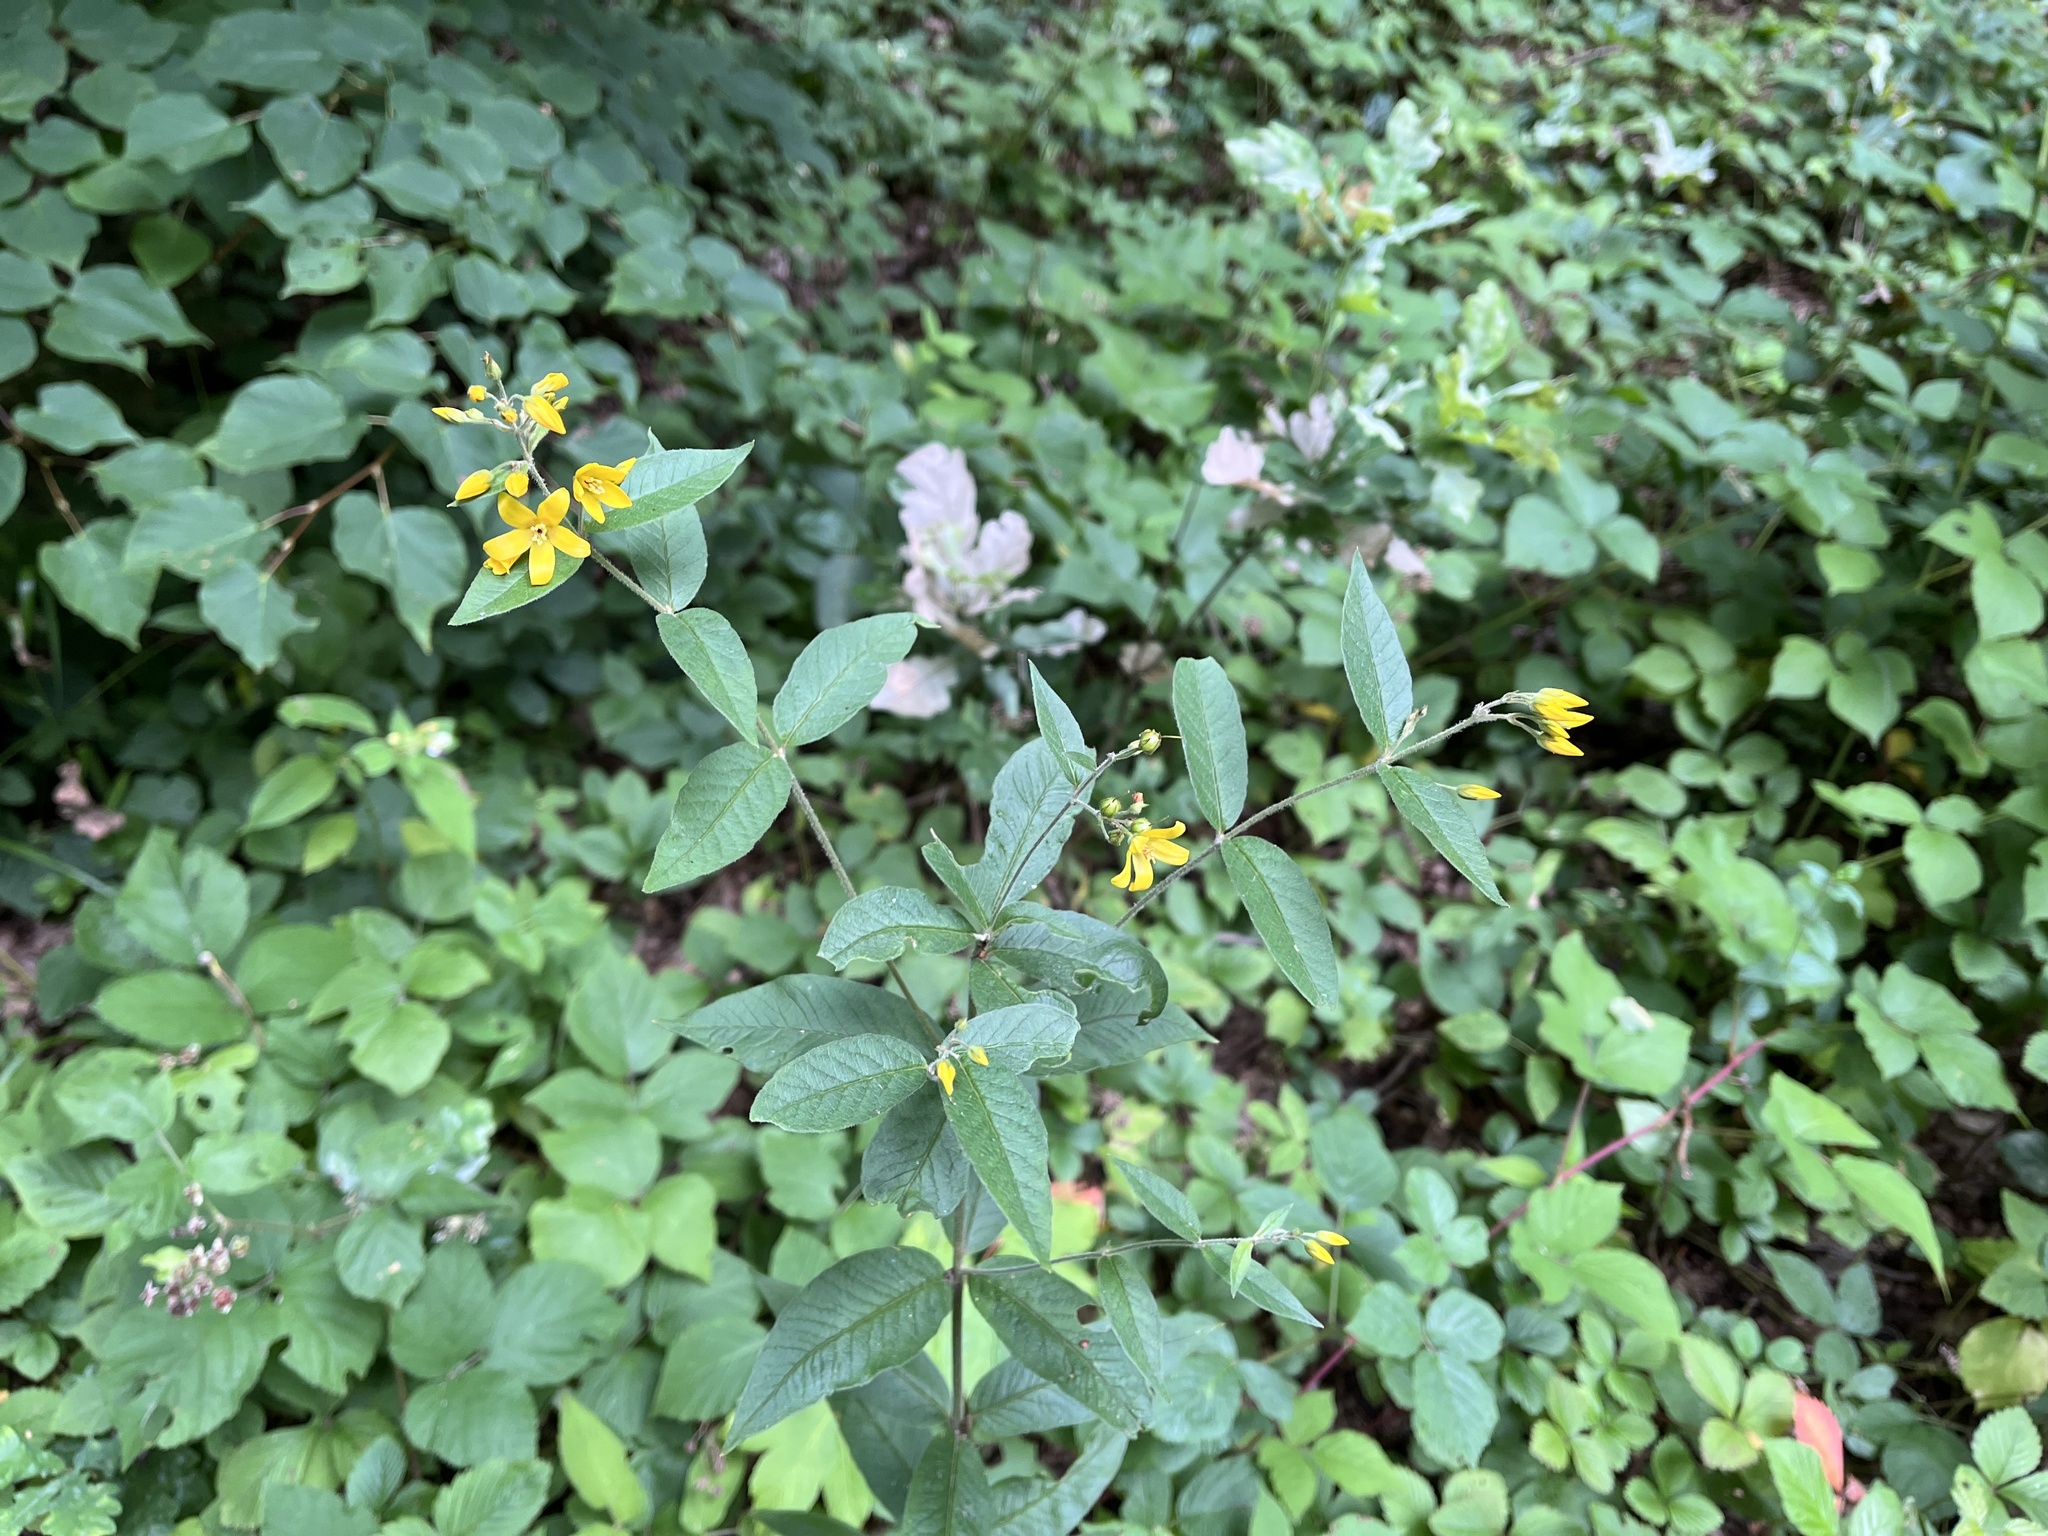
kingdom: Plantae
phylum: Tracheophyta
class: Magnoliopsida
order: Ericales
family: Primulaceae
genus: Lysimachia
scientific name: Lysimachia vulgaris
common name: Yellow loosestrife
